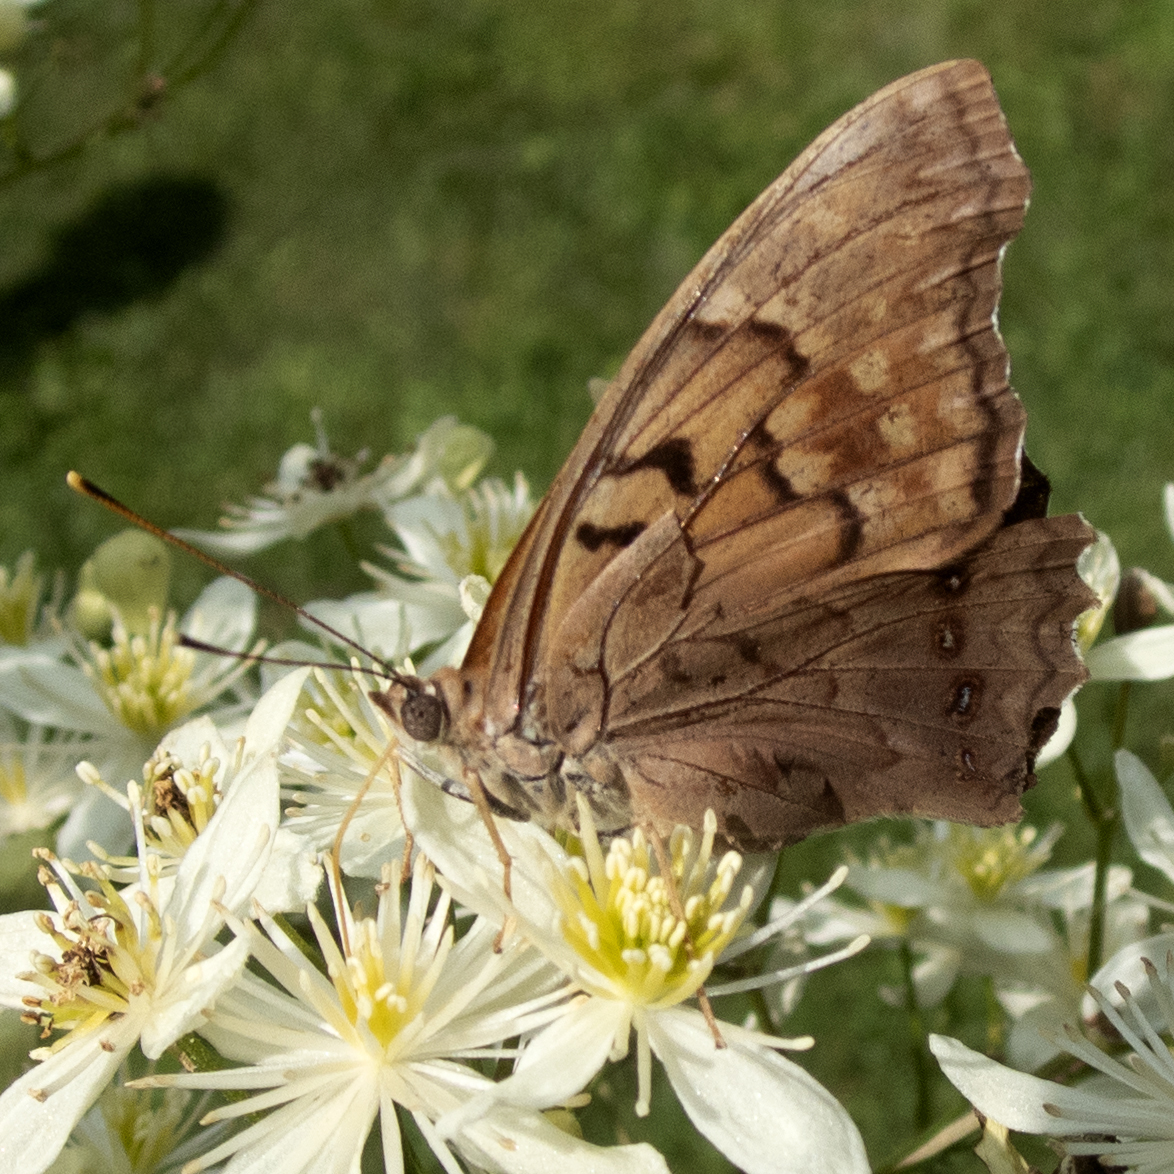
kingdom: Animalia
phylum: Arthropoda
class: Insecta
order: Lepidoptera
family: Nymphalidae
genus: Asterocampa
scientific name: Asterocampa clyton
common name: Tawny emperor
